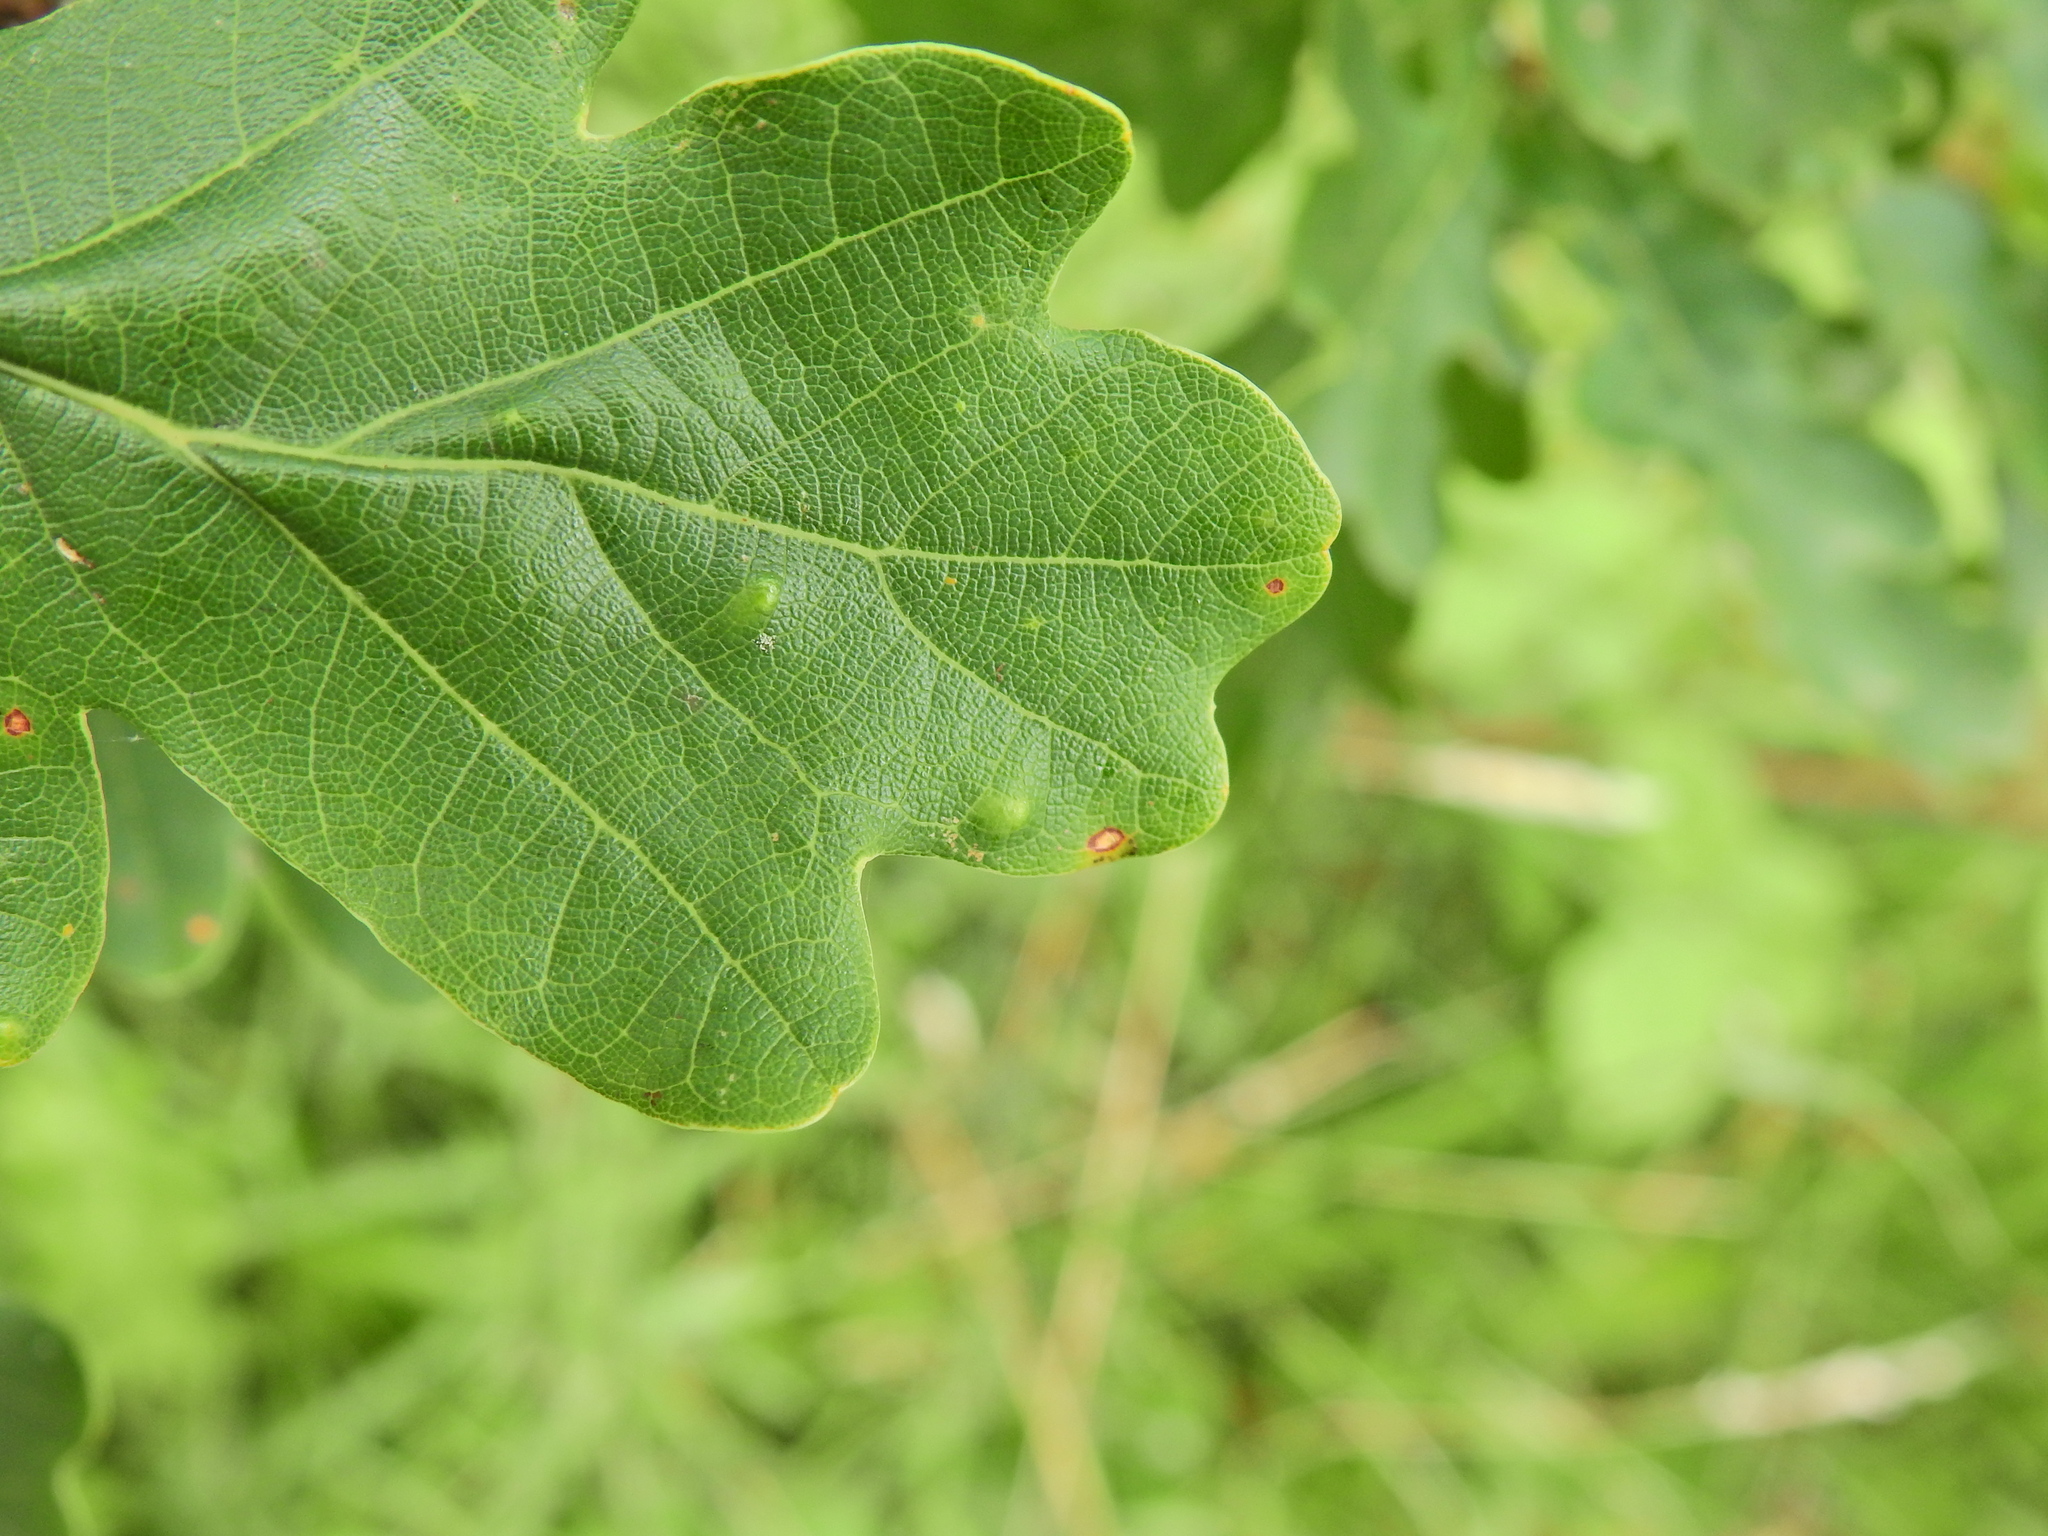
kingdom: Animalia
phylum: Arthropoda
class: Insecta
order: Hemiptera
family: Triozidae
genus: Trioza
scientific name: Trioza remota
